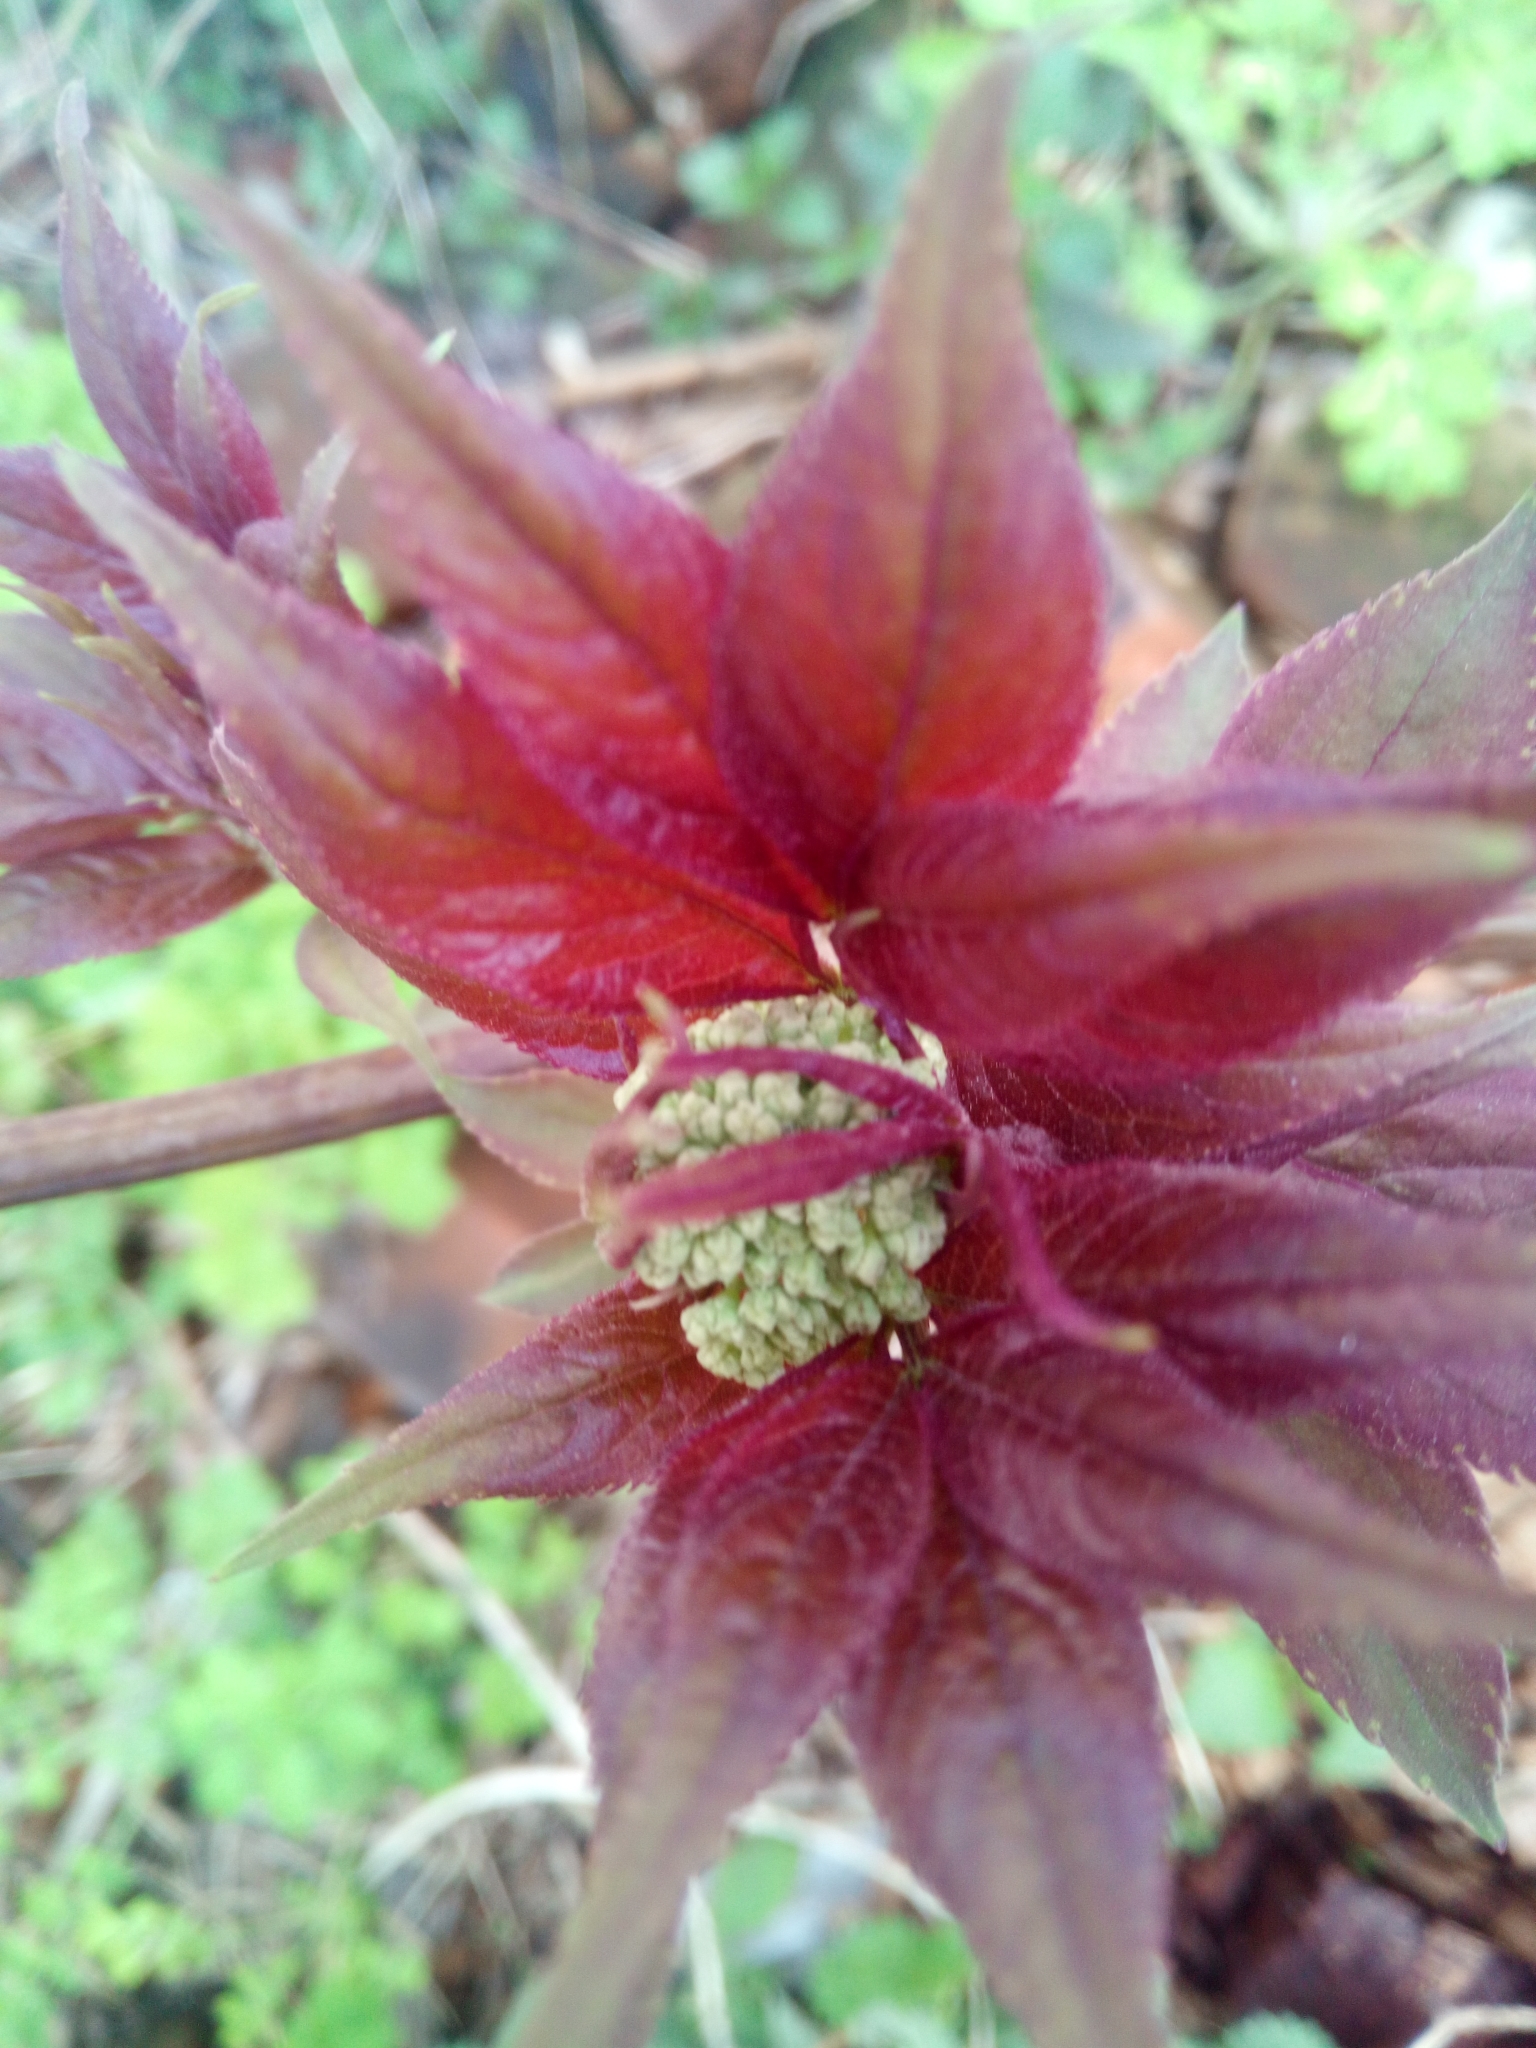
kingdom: Plantae
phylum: Tracheophyta
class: Magnoliopsida
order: Dipsacales
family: Viburnaceae
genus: Sambucus
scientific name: Sambucus racemosa
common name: Red-berried elder
